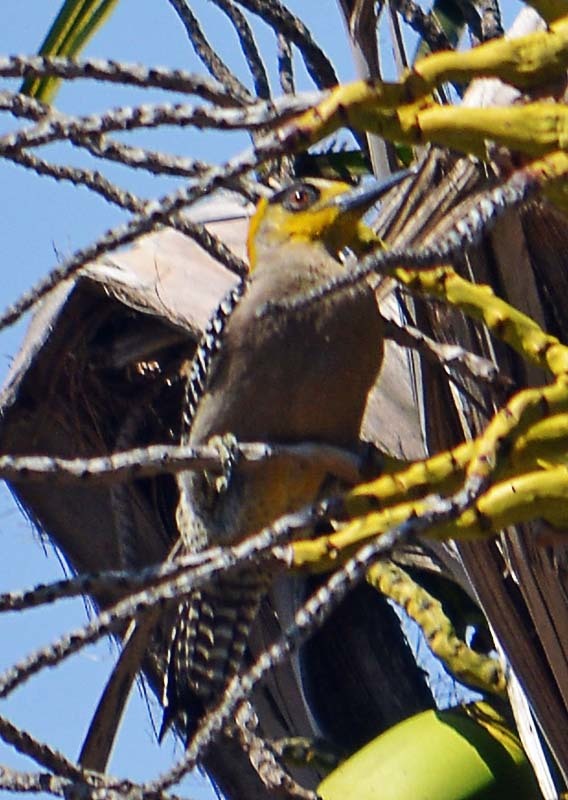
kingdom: Animalia
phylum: Chordata
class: Aves
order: Piciformes
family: Picidae
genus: Melanerpes
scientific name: Melanerpes chrysogenys
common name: Golden-cheeked woodpecker
